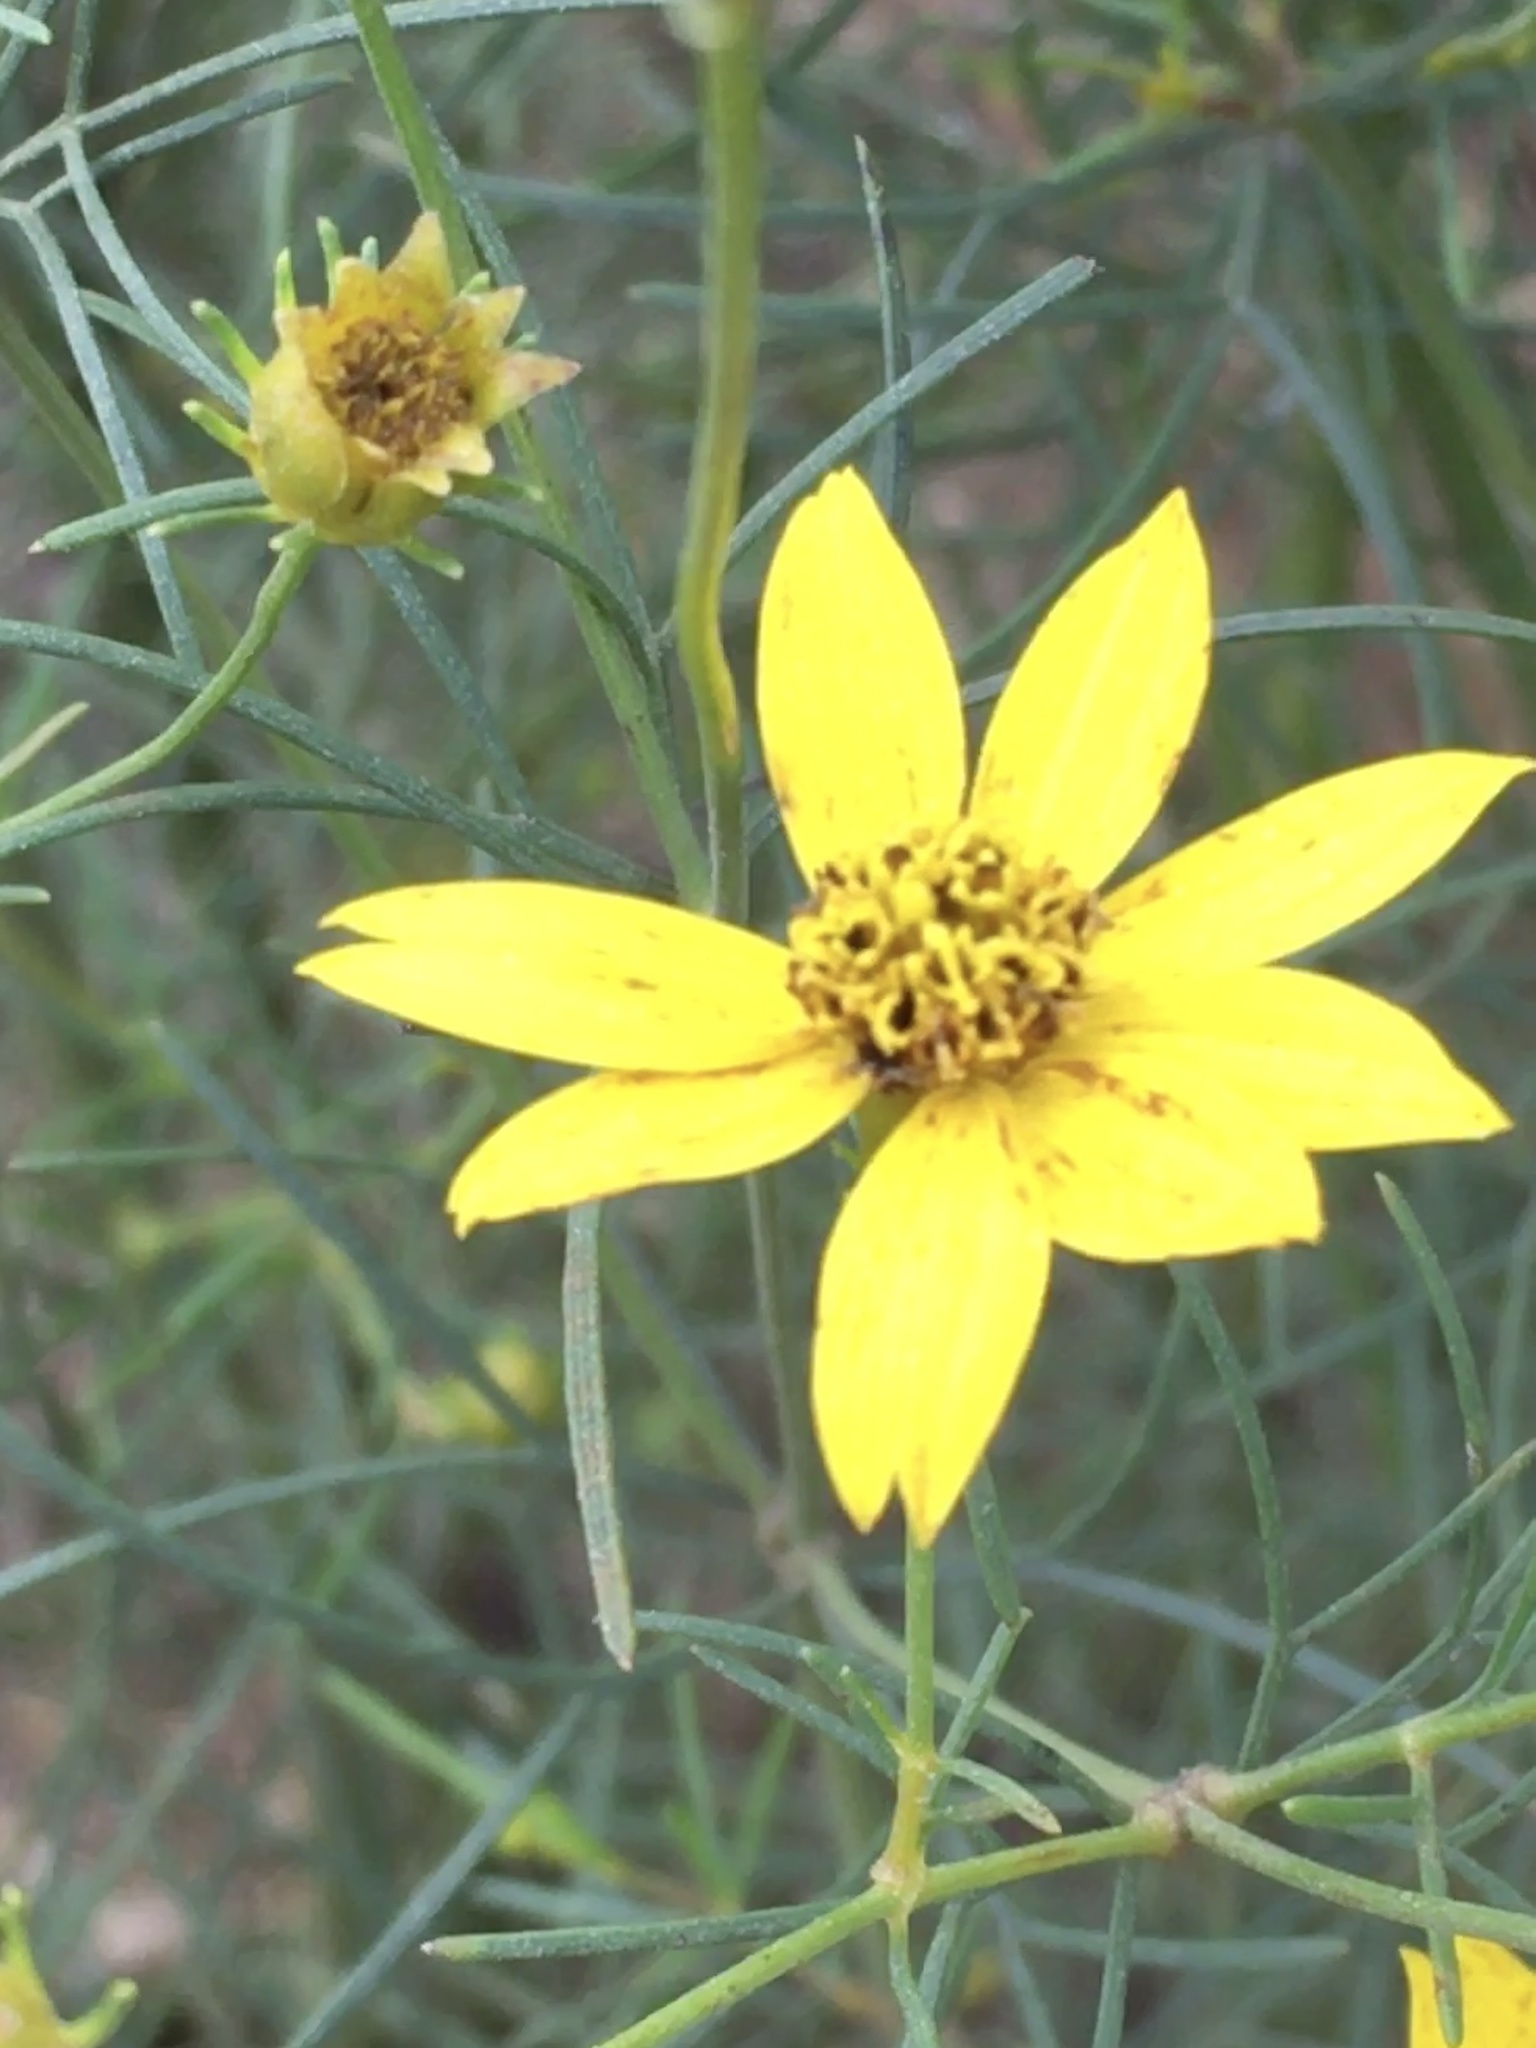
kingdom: Plantae
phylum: Tracheophyta
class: Magnoliopsida
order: Asterales
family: Asteraceae
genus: Coreopsis
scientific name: Coreopsis verticillata
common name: Whorled tickseed
